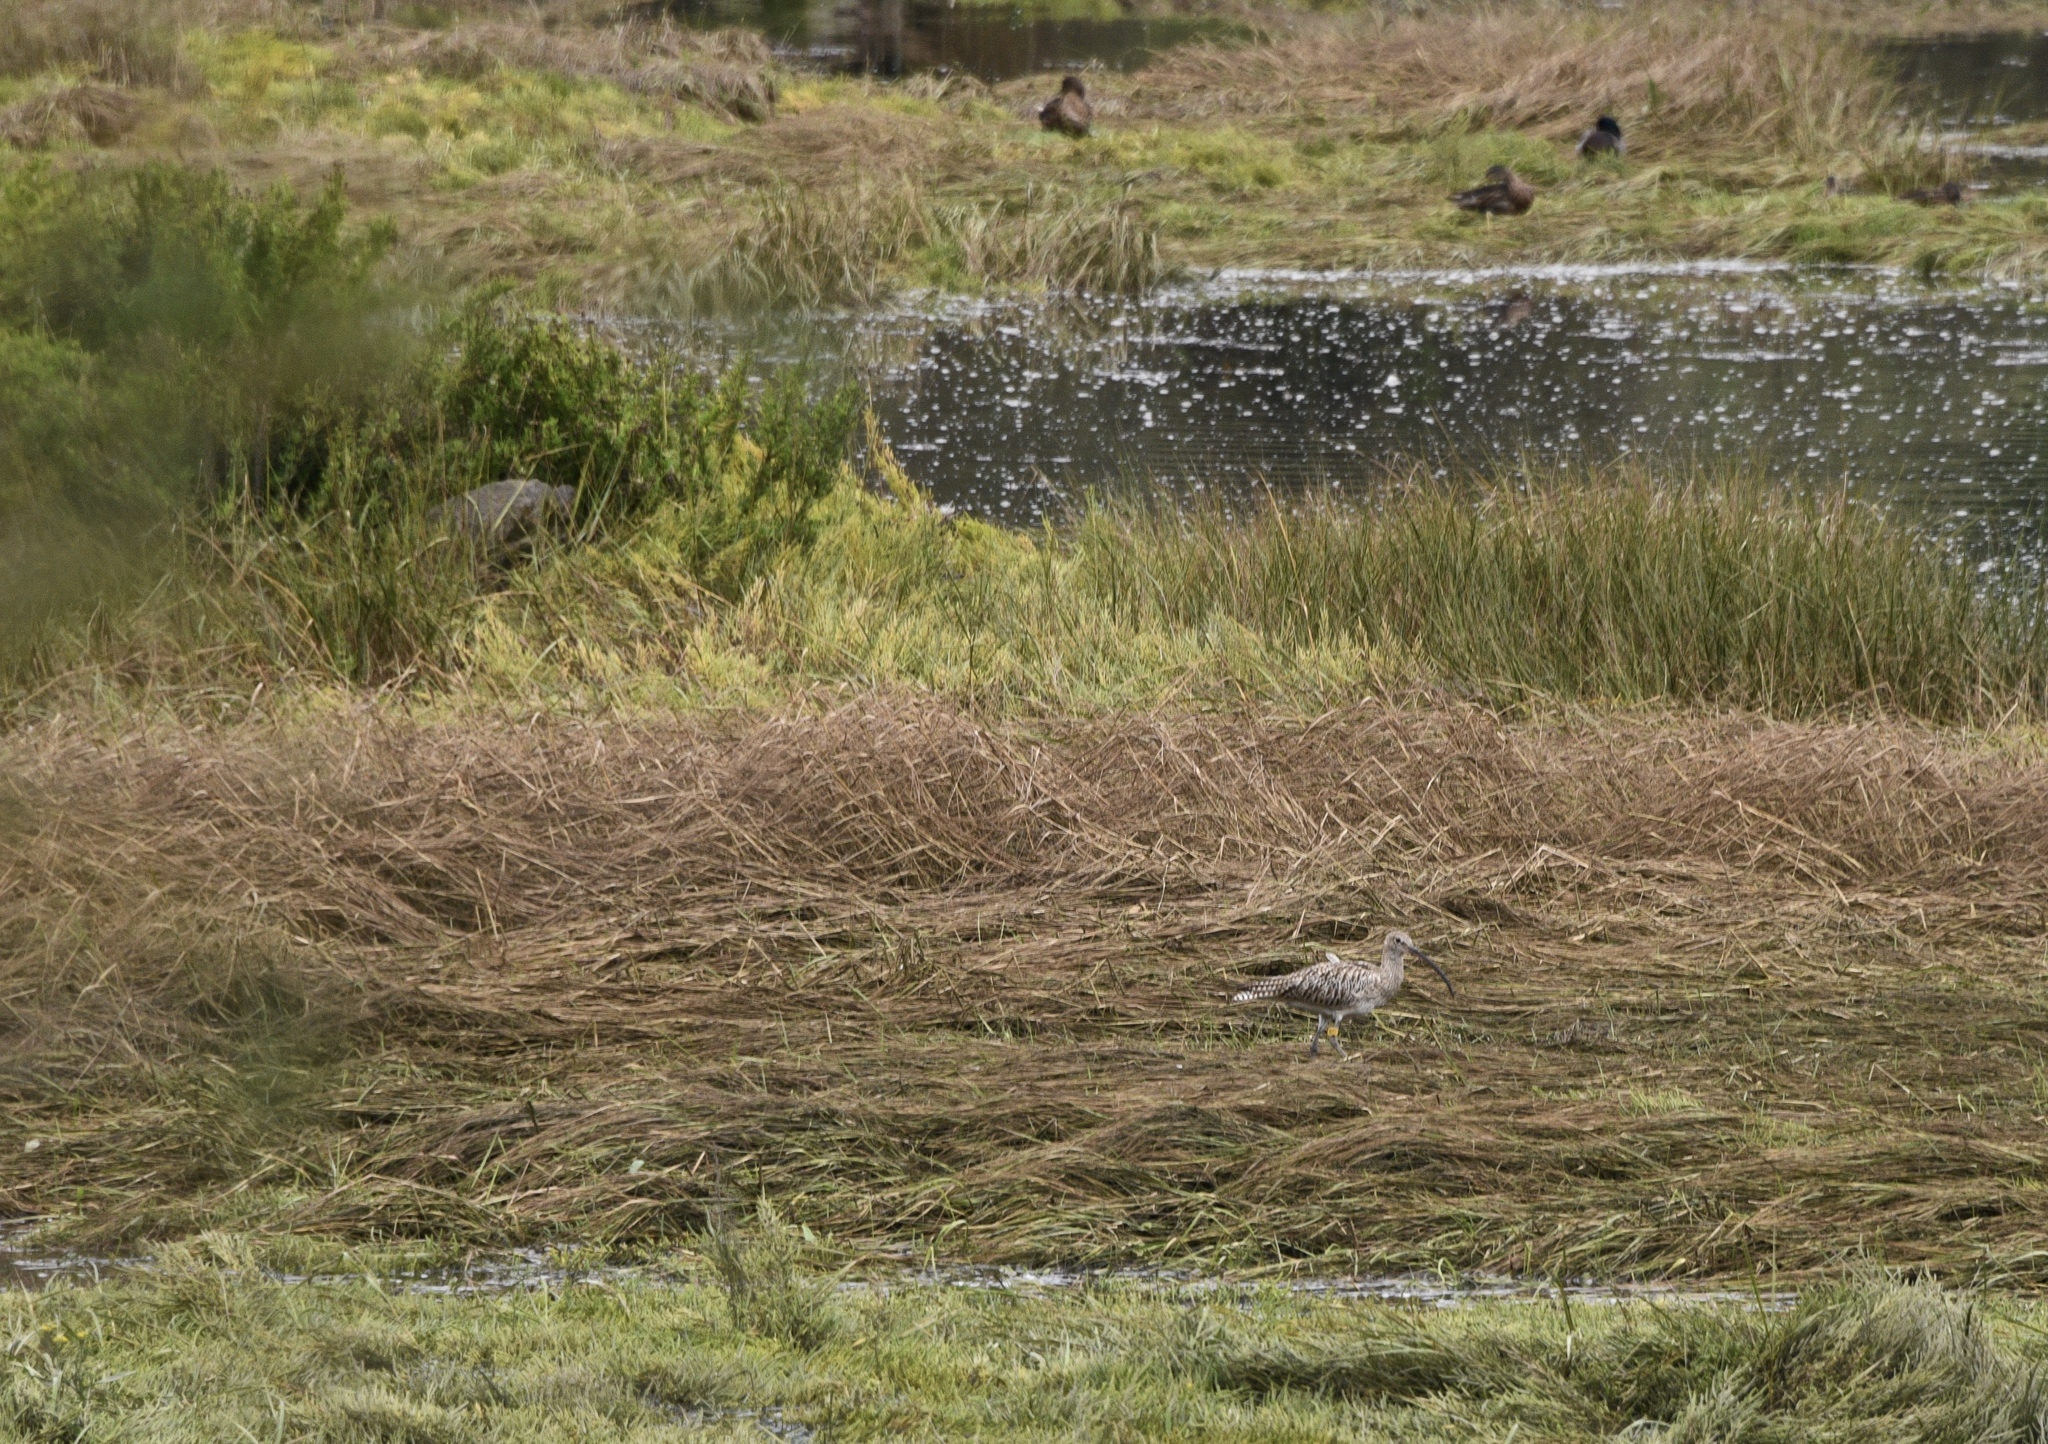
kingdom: Animalia
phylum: Chordata
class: Aves
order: Charadriiformes
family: Scolopacidae
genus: Numenius
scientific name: Numenius arquata
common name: Eurasian curlew
